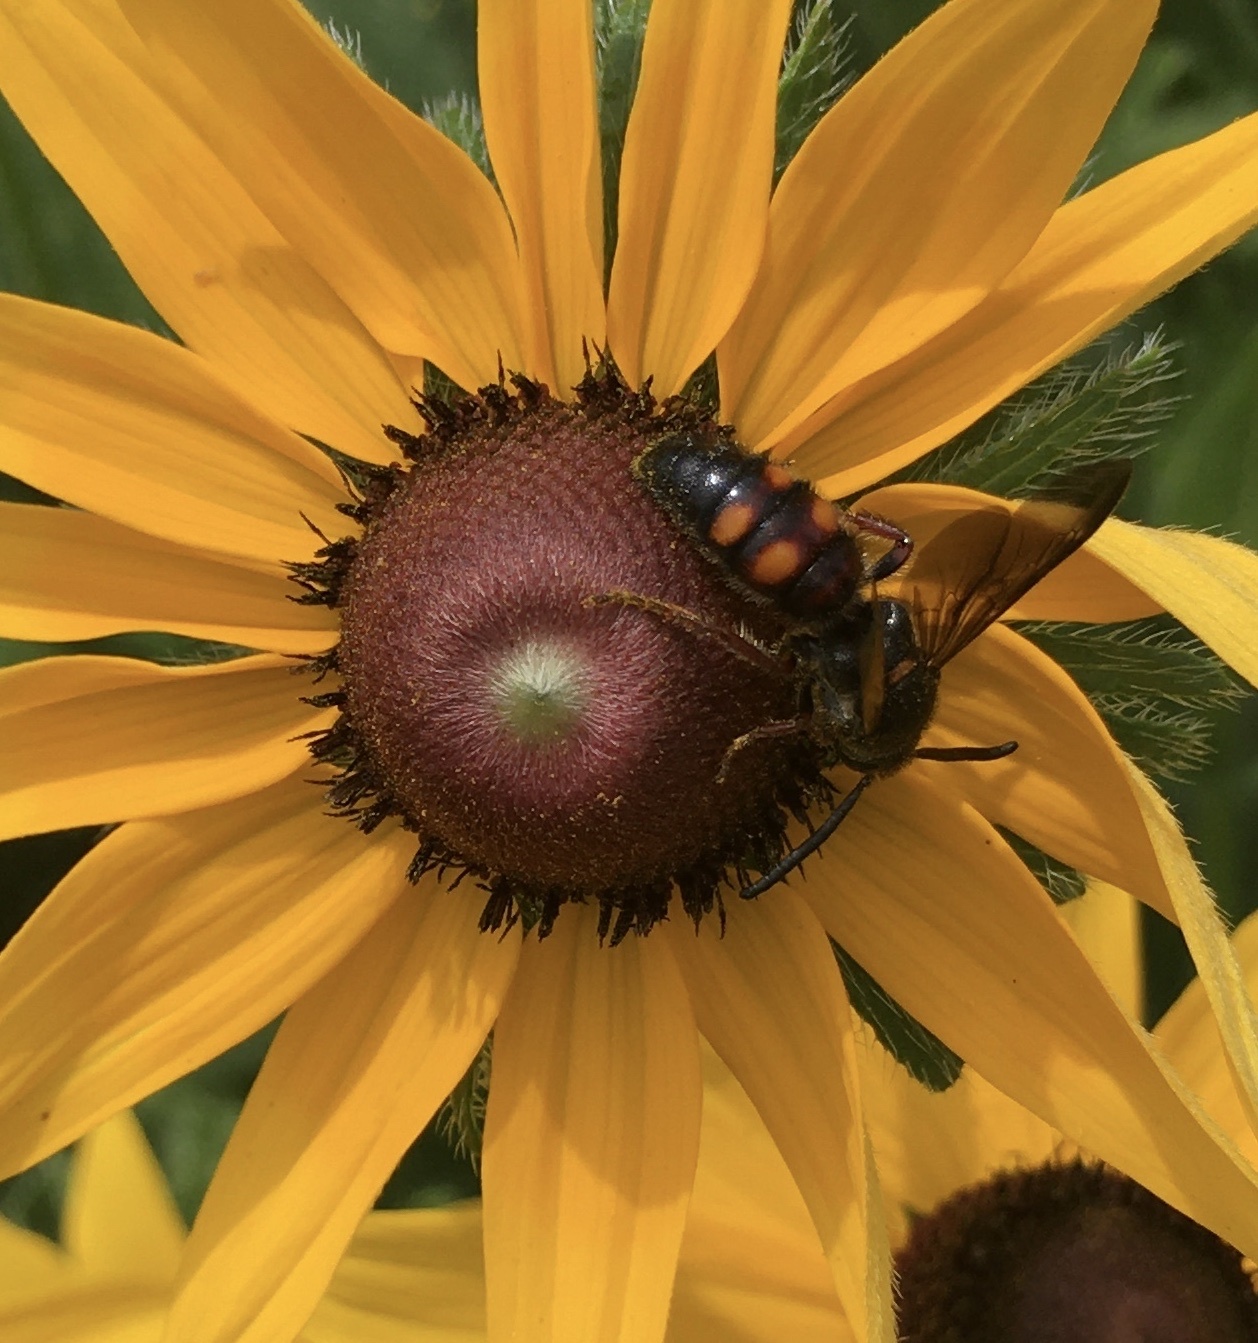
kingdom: Animalia
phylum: Arthropoda
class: Insecta
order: Hymenoptera
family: Scoliidae
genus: Scolia
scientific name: Scolia nobilitata
